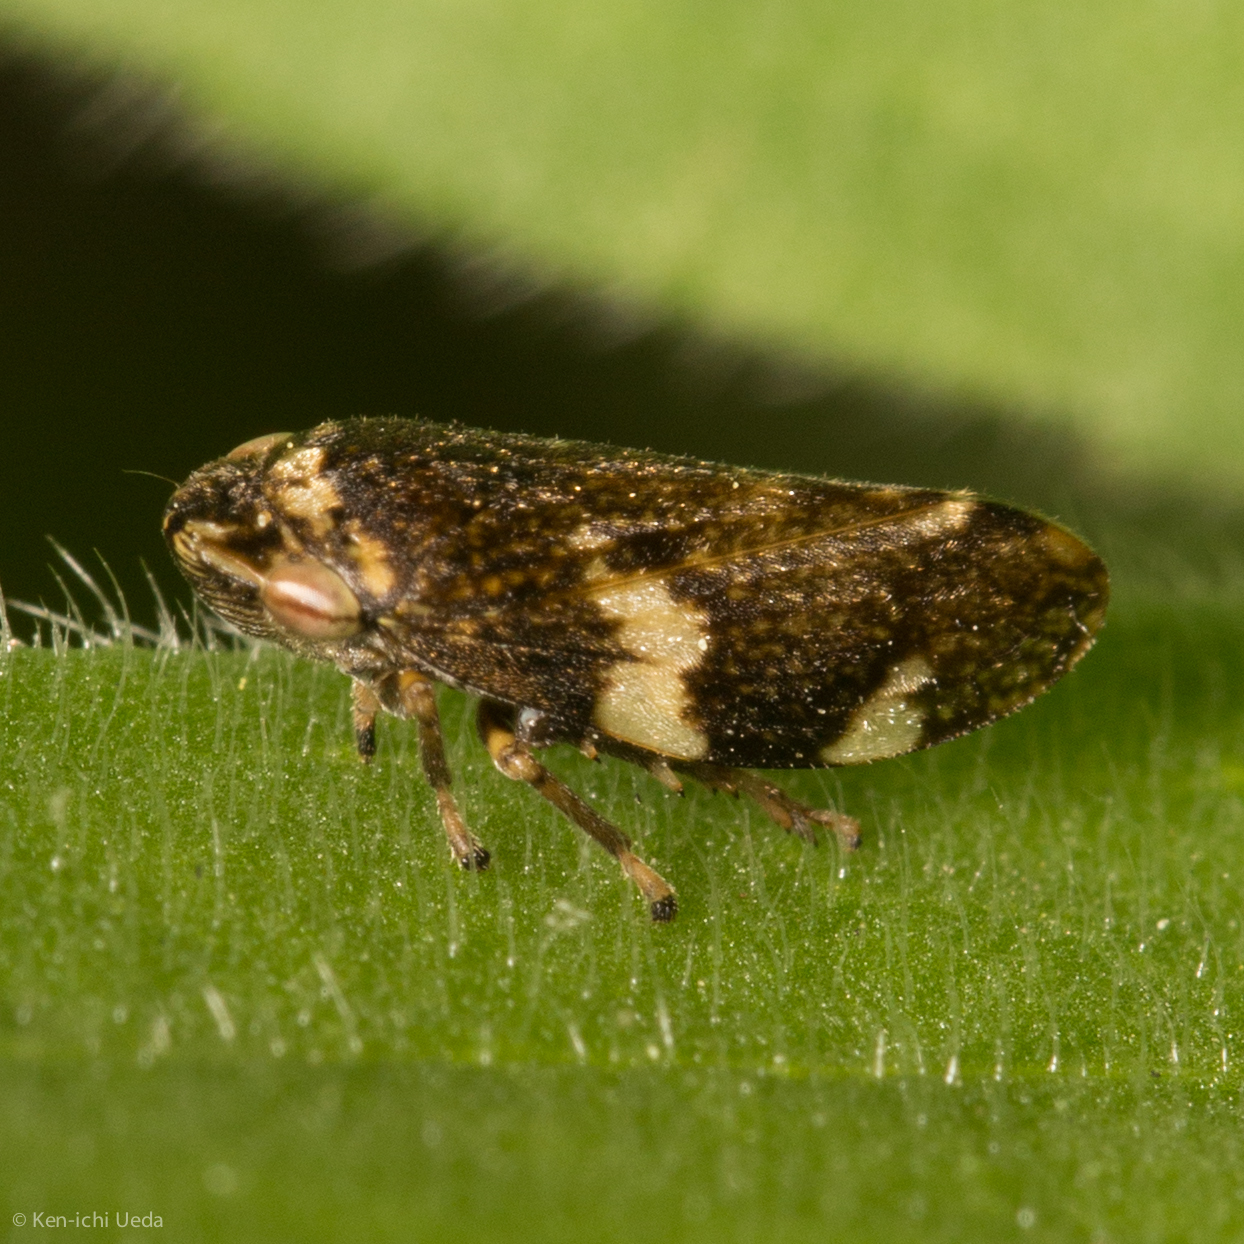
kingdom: Animalia
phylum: Arthropoda
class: Insecta
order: Hemiptera
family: Aphrophoridae
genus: Philaenus
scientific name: Philaenus spumarius
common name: Meadow spittlebug
